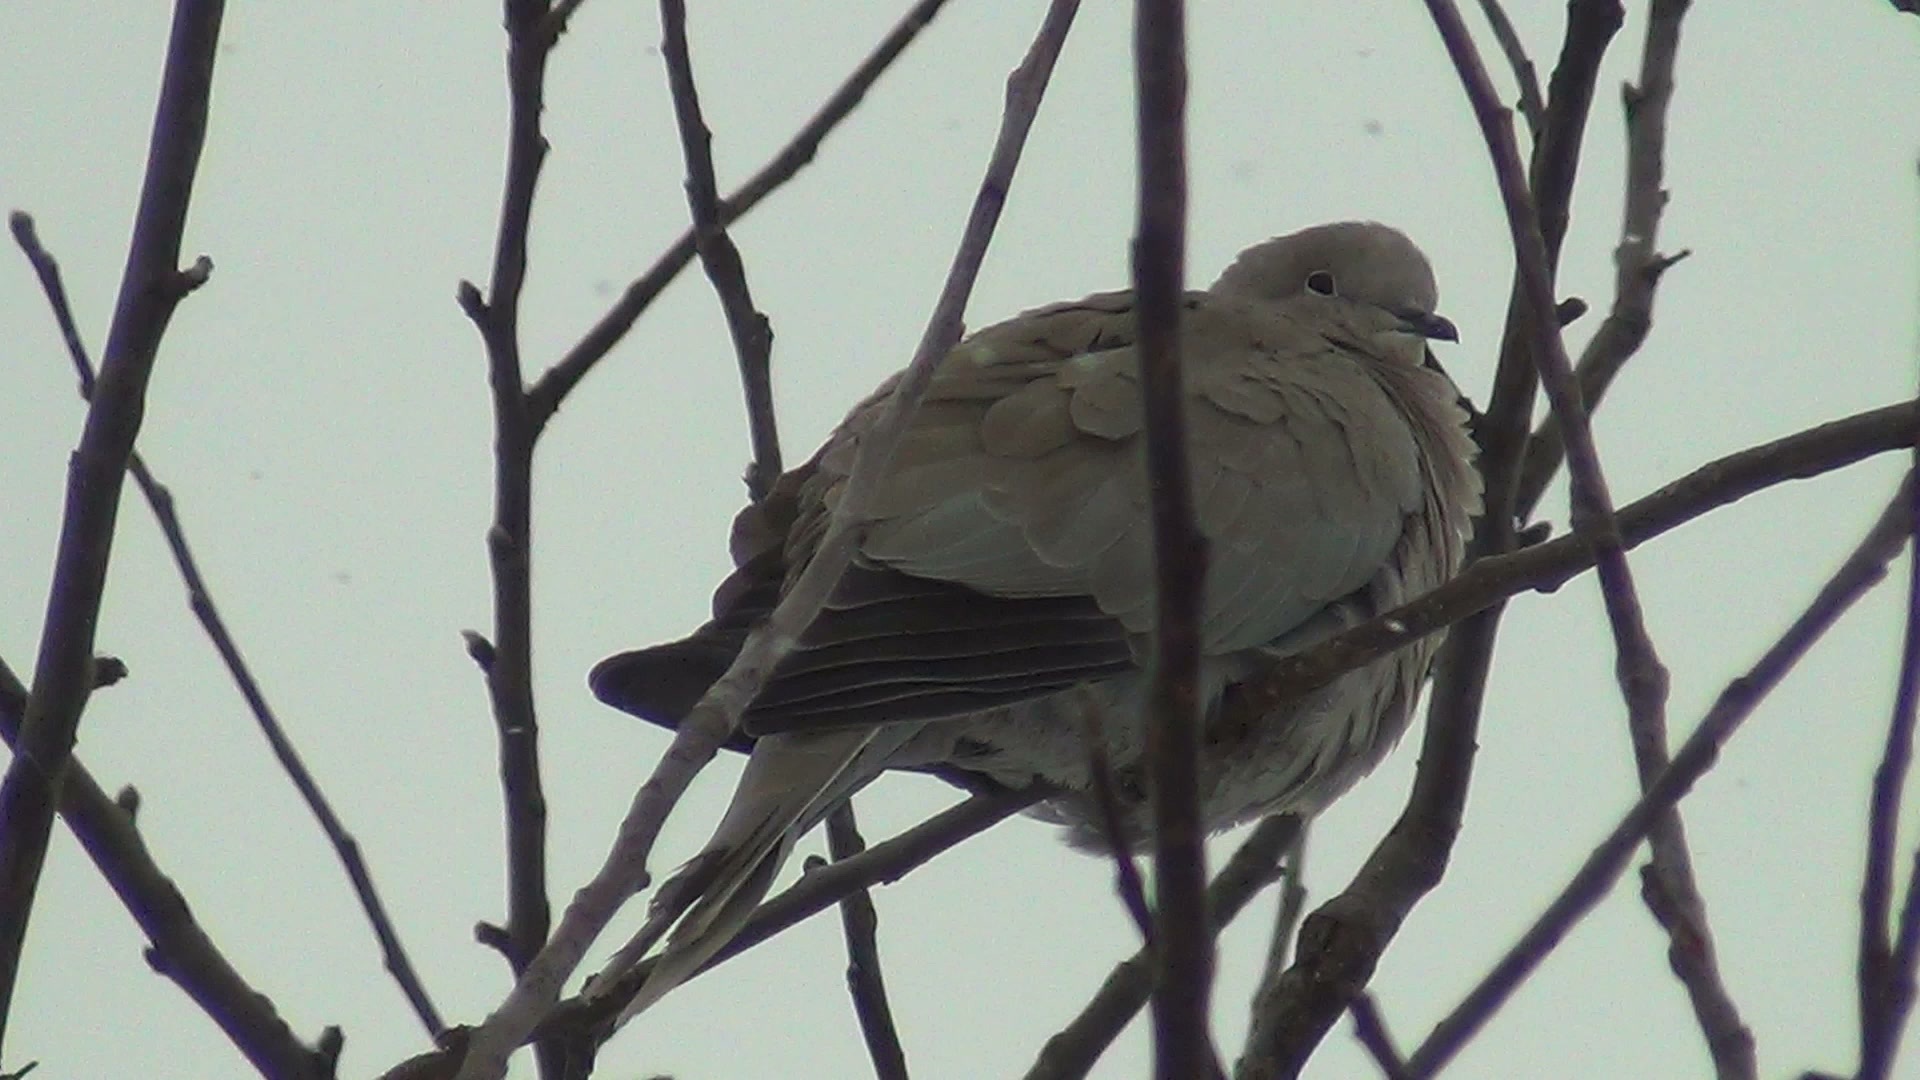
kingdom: Animalia
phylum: Chordata
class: Aves
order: Columbiformes
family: Columbidae
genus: Streptopelia
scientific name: Streptopelia decaocto
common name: Eurasian collared dove
